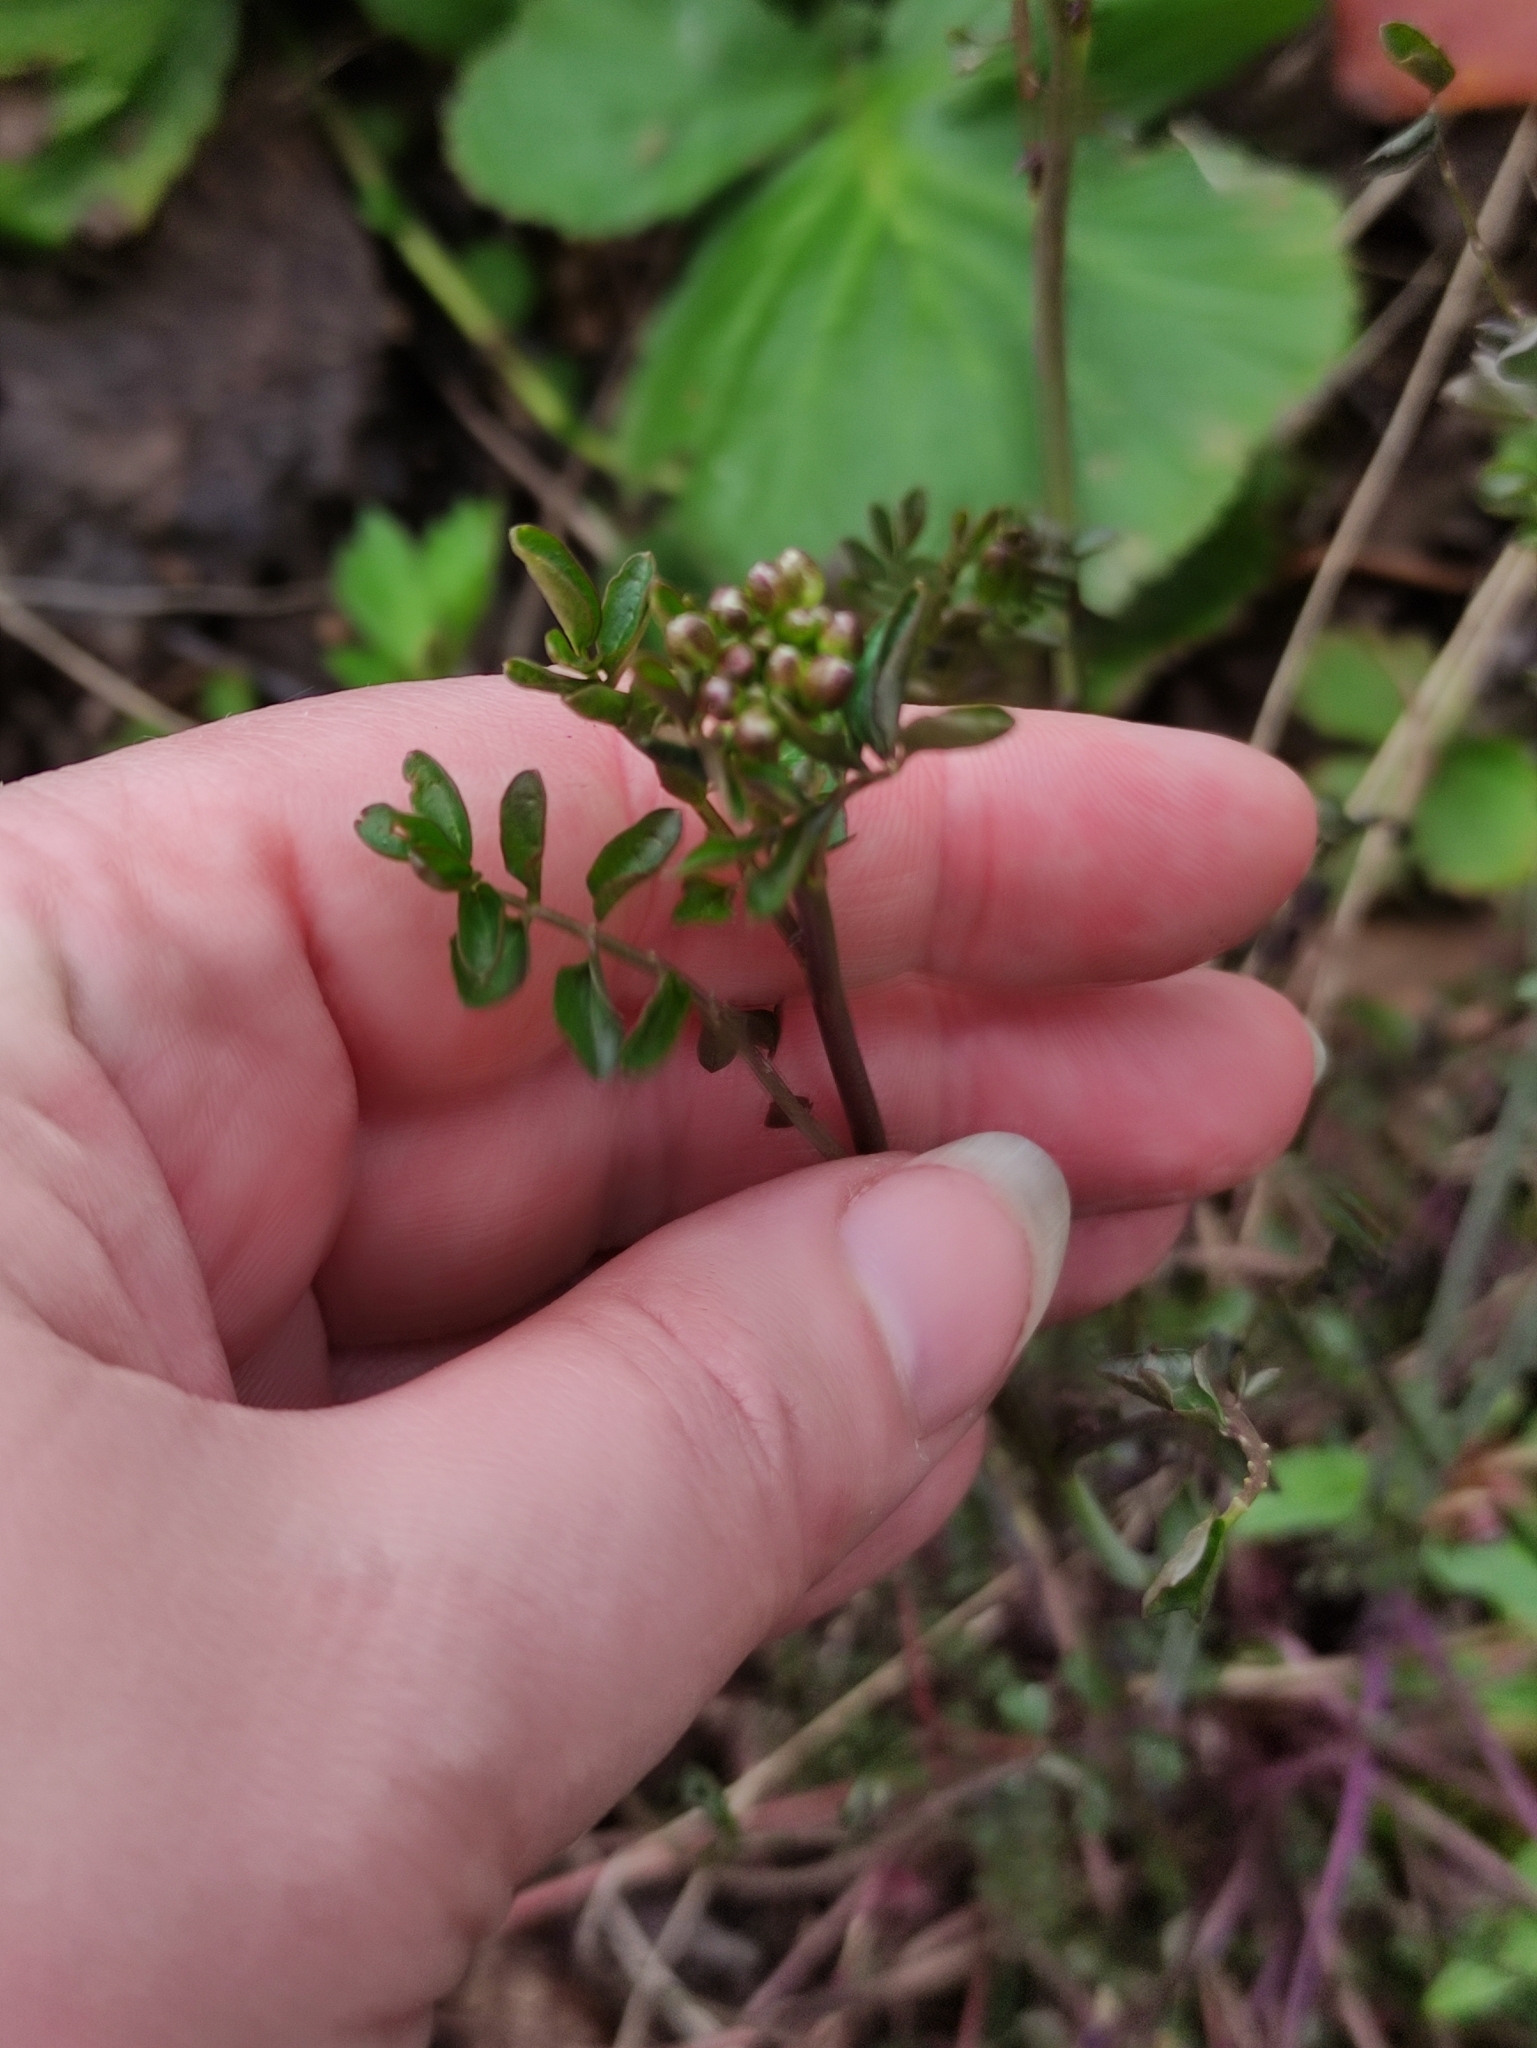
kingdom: Plantae
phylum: Tracheophyta
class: Magnoliopsida
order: Brassicales
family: Brassicaceae
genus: Cardamine
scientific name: Cardamine dentata
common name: Toothed bittercress
